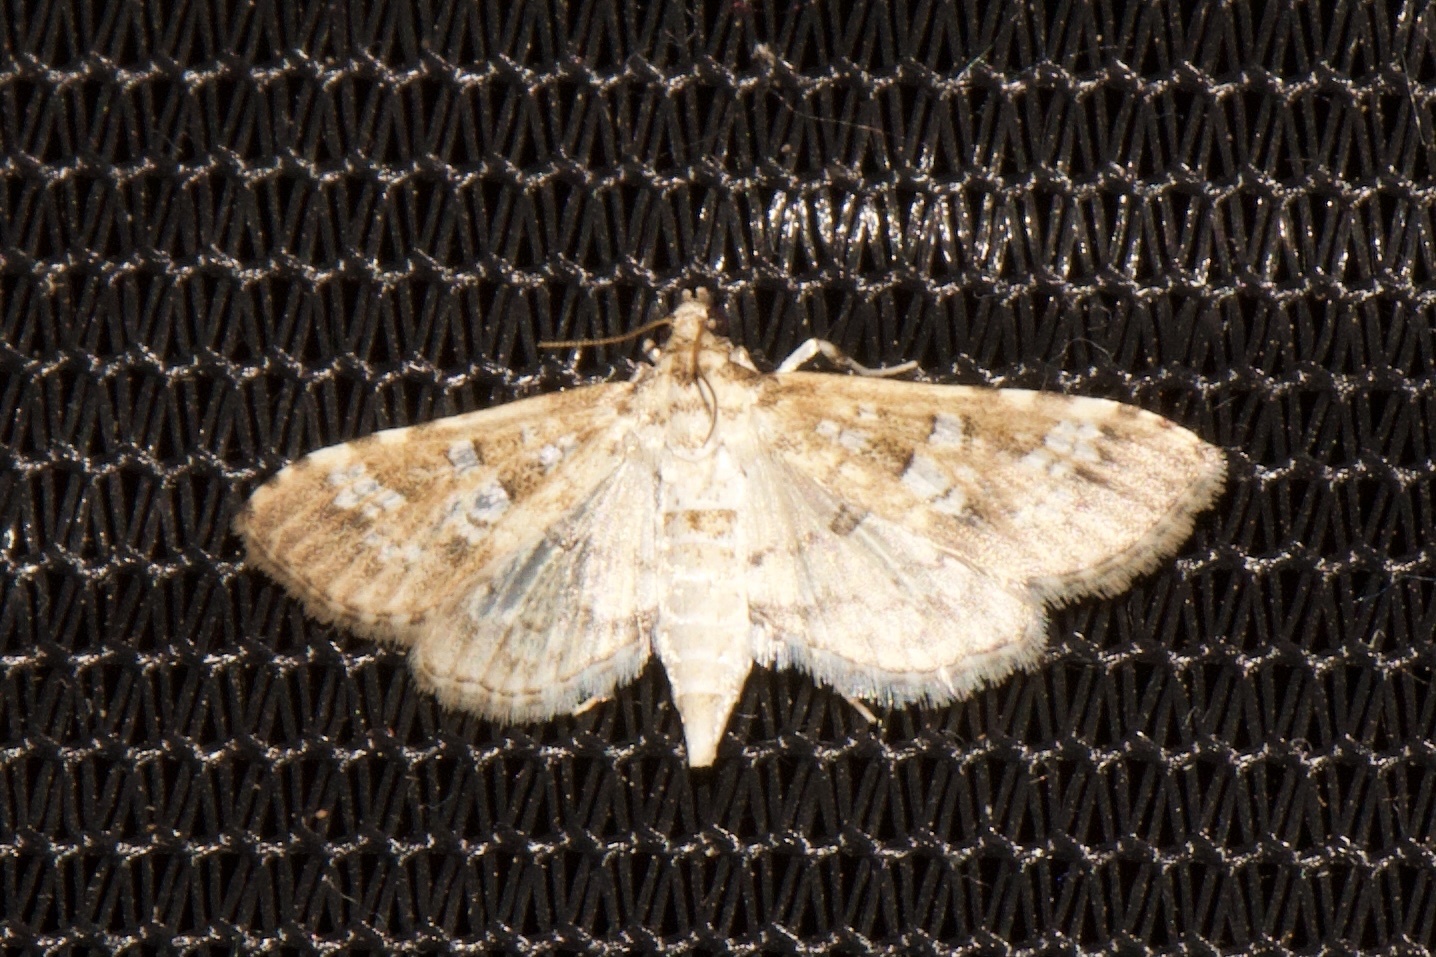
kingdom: Animalia
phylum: Arthropoda
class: Insecta
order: Lepidoptera
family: Crambidae
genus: Samea
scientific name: Samea multiplicalis
